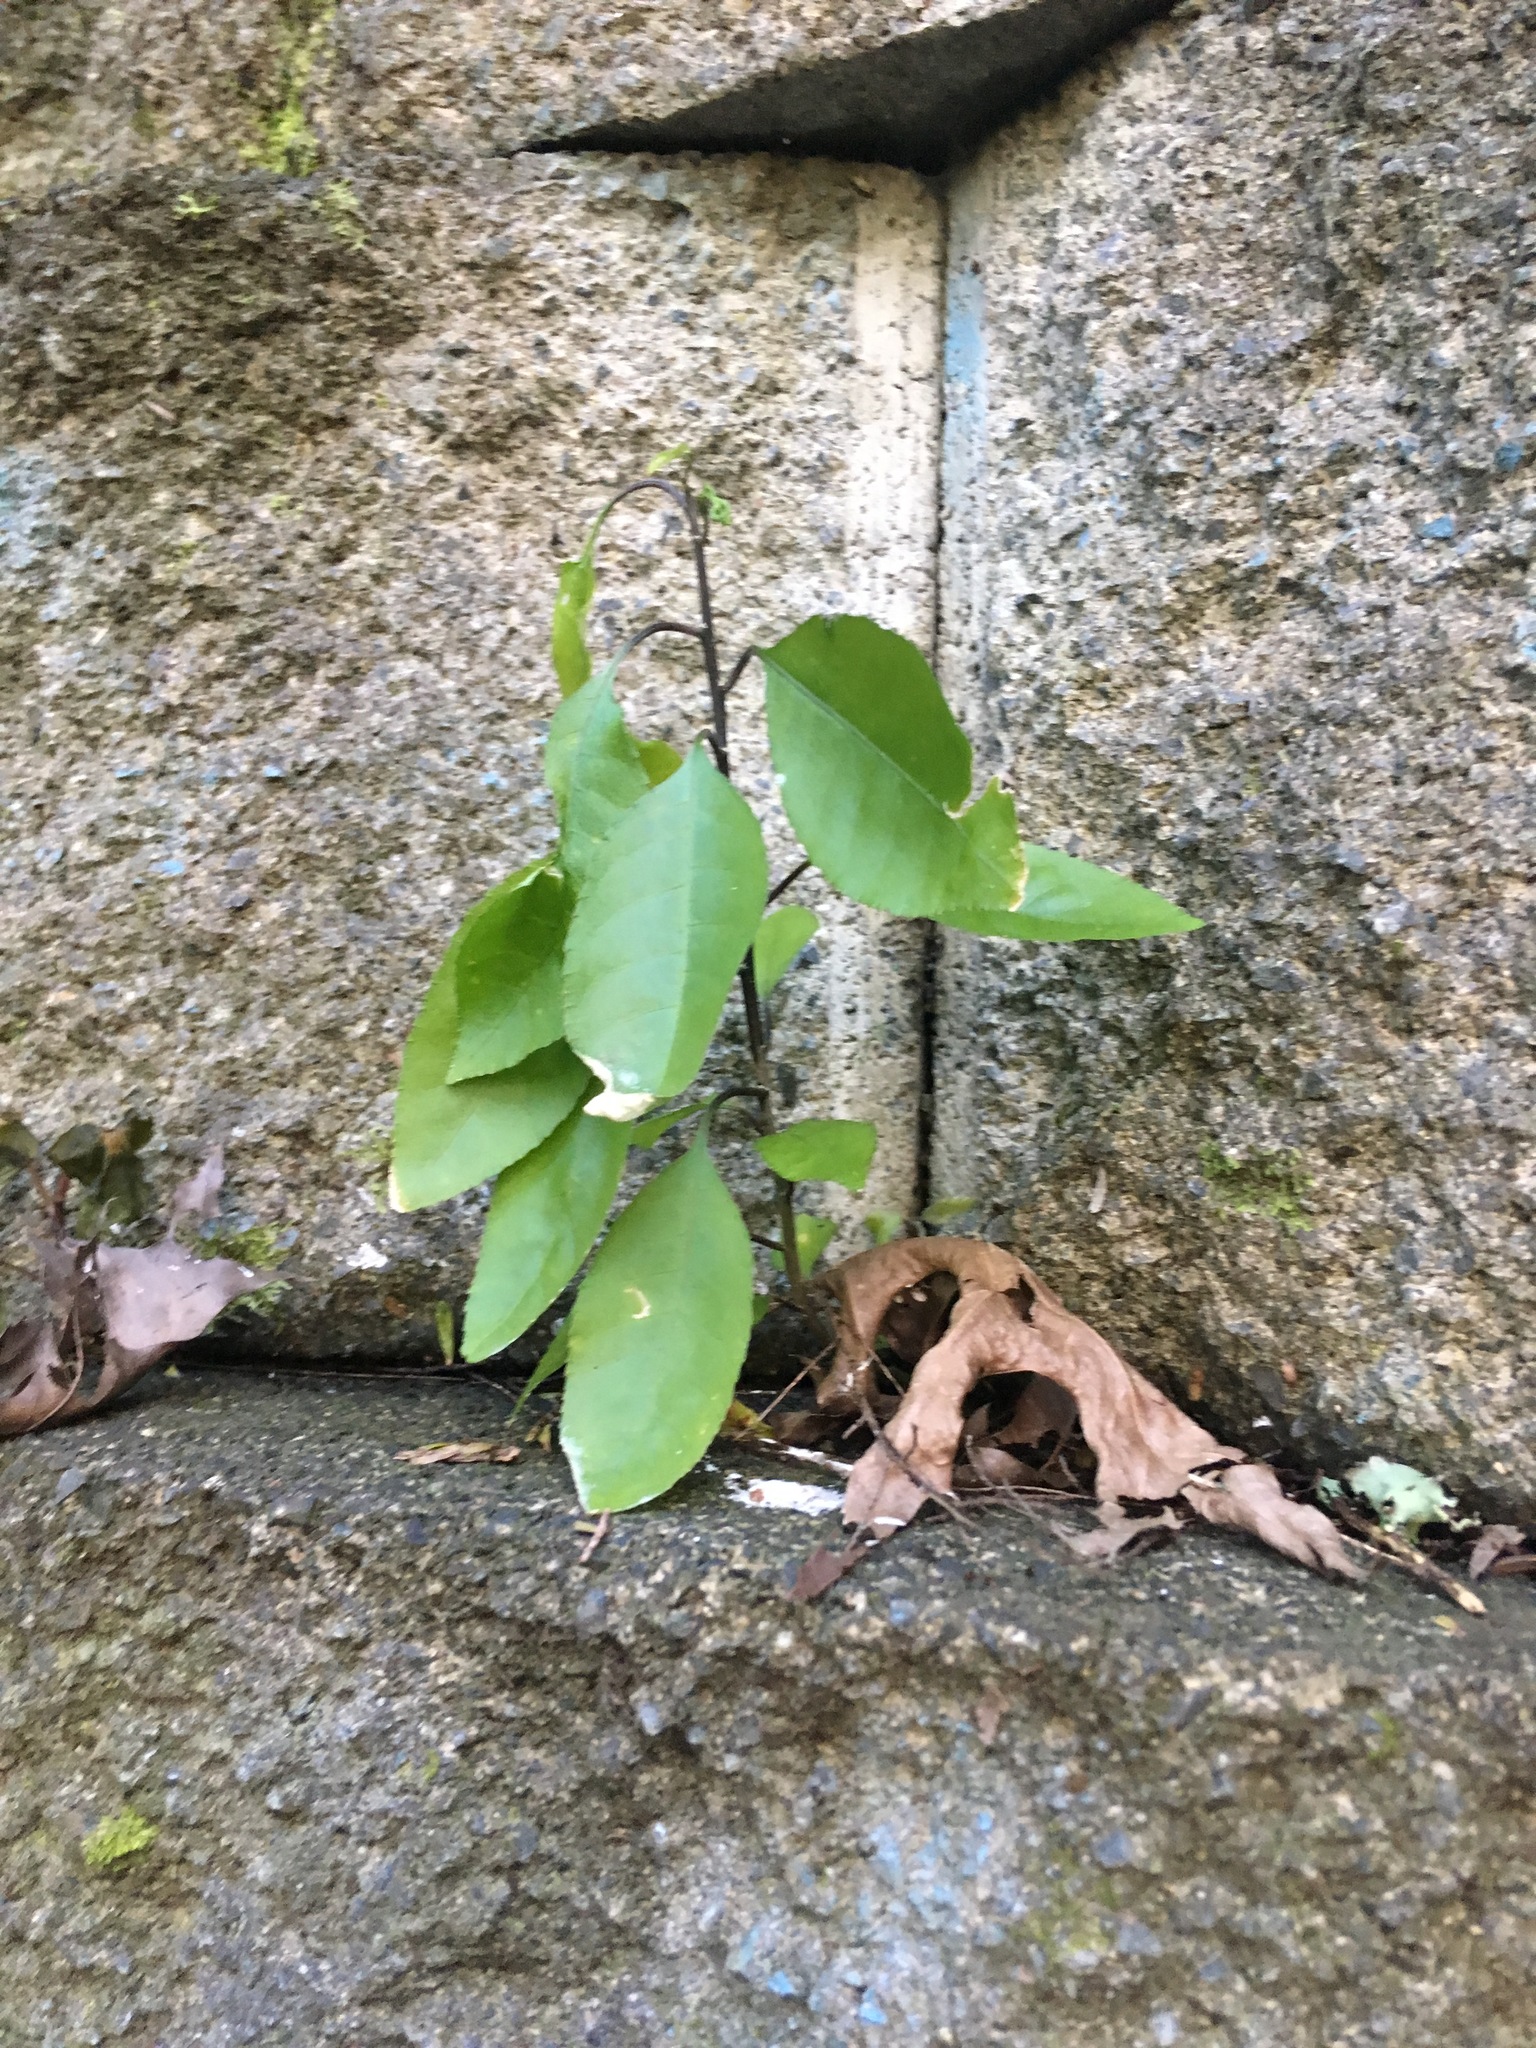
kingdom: Plantae
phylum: Tracheophyta
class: Magnoliopsida
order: Malpighiales
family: Violaceae
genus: Melicytus
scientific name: Melicytus ramiflorus
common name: Mahoe
